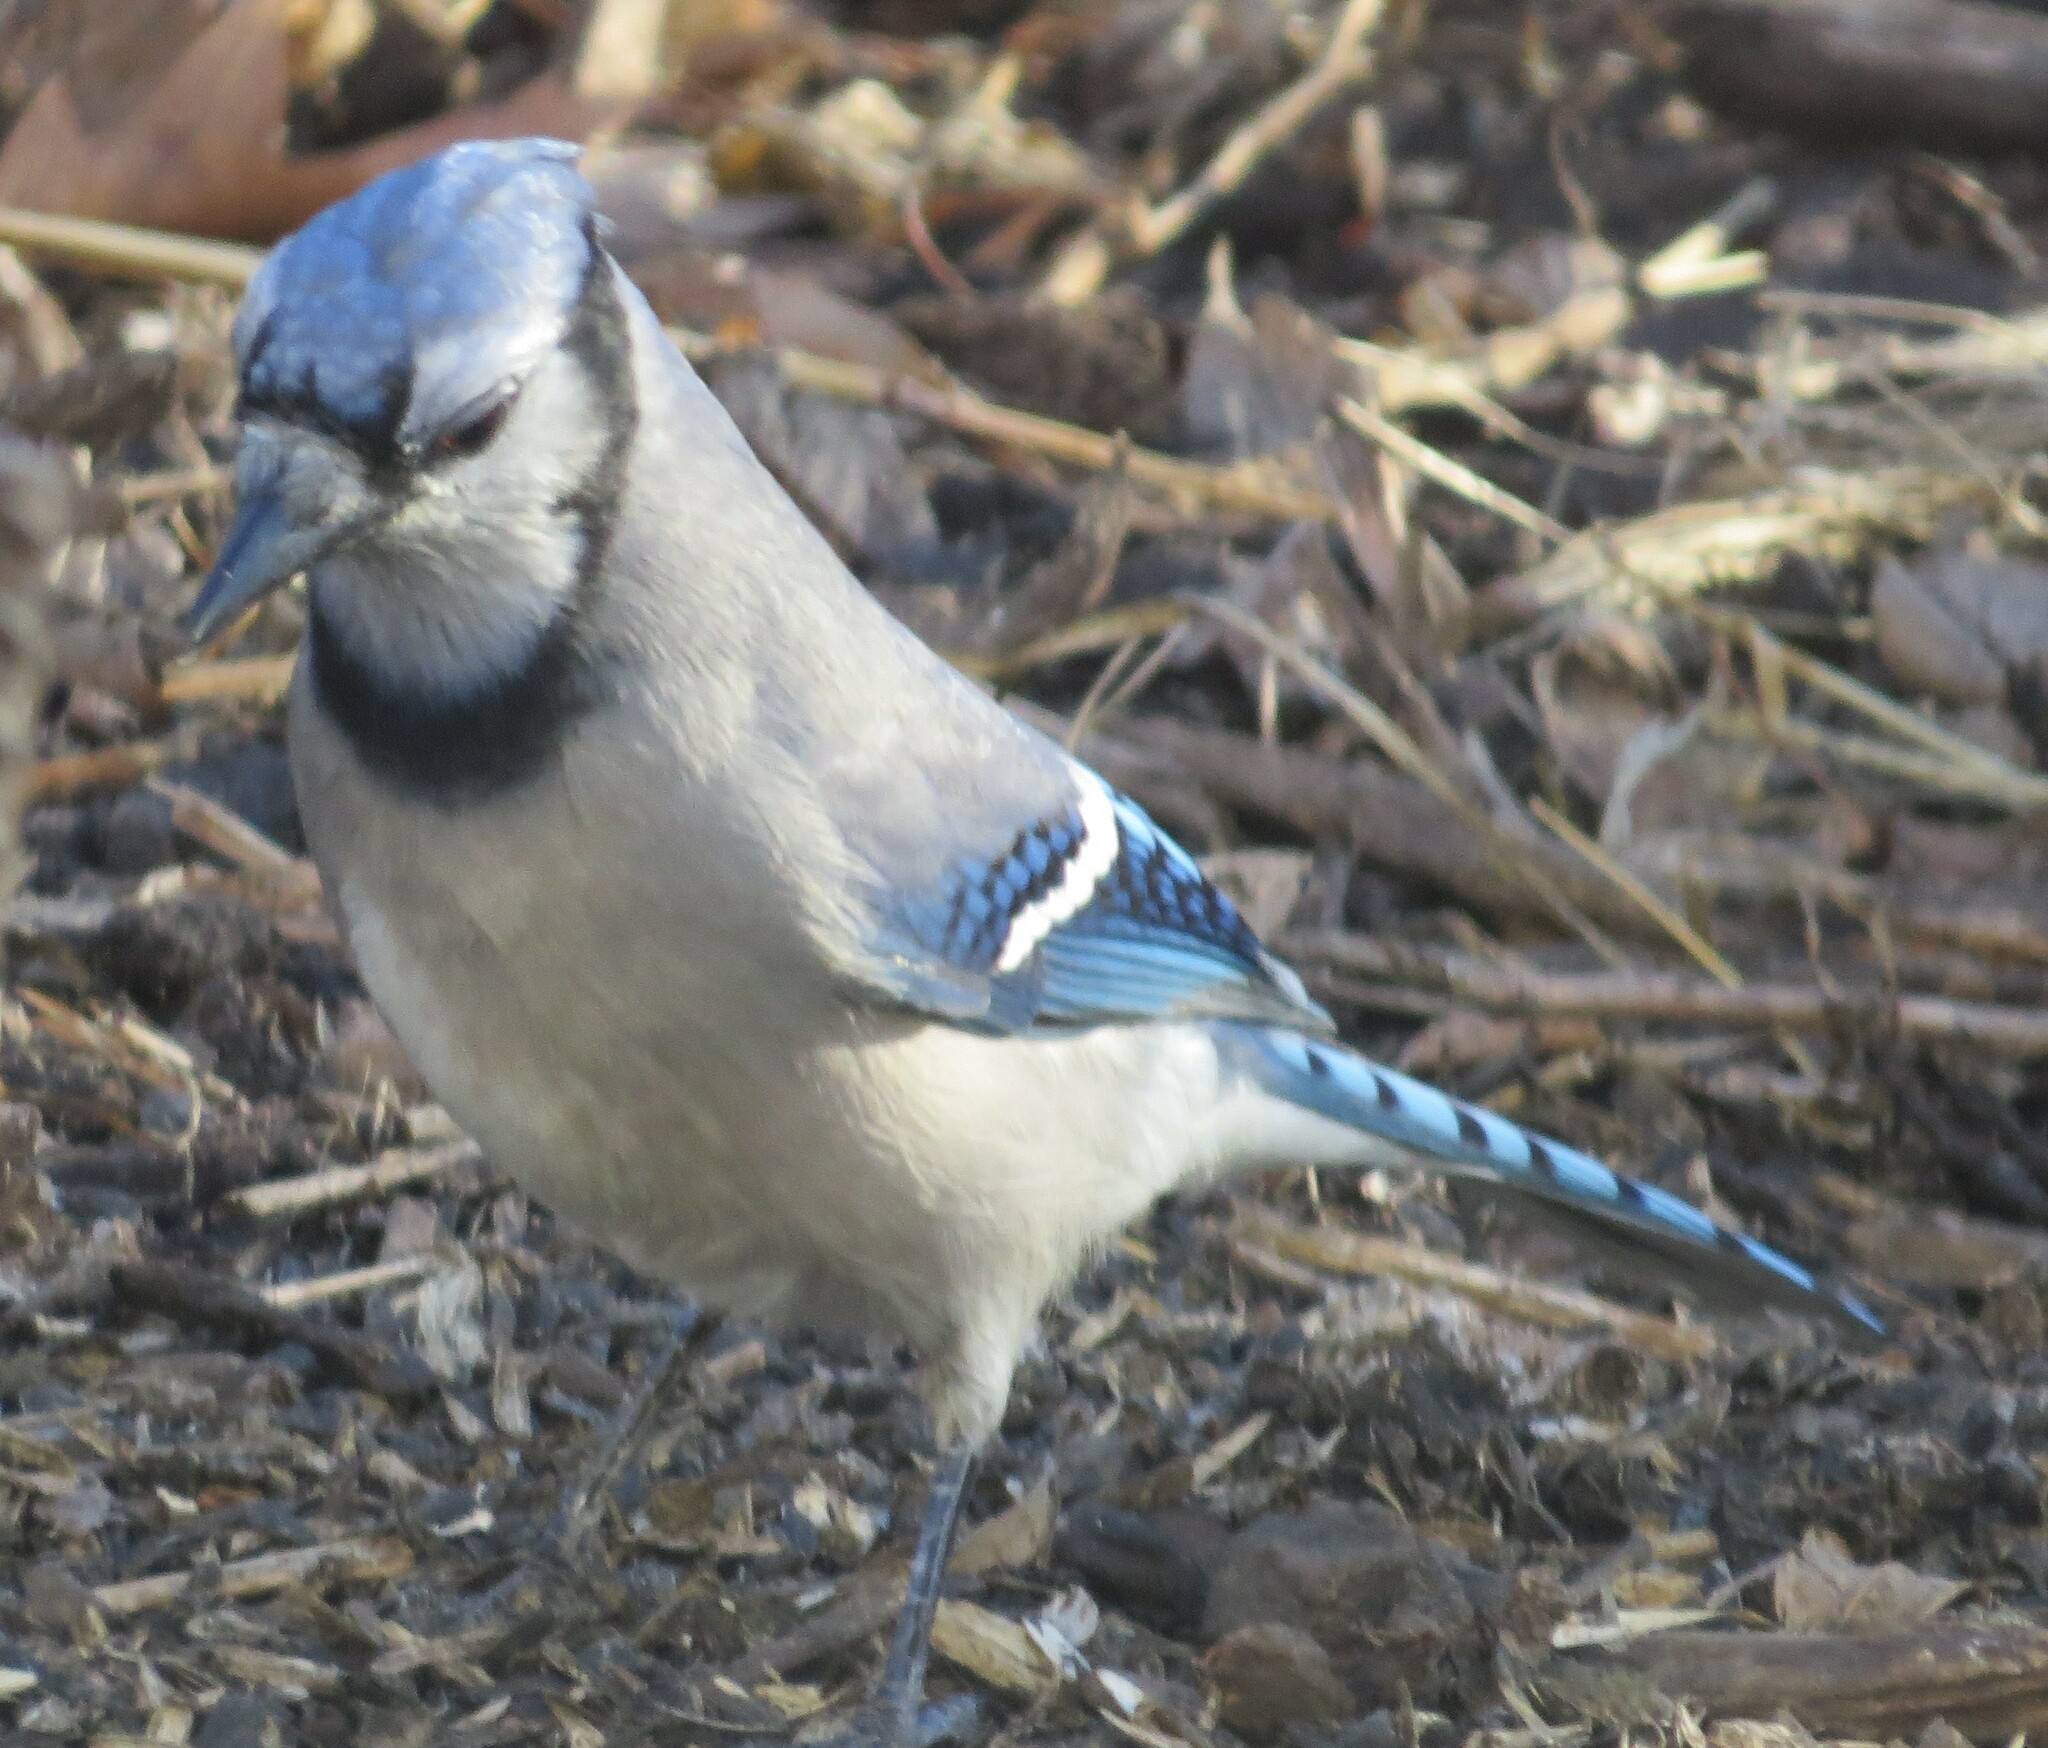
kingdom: Animalia
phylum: Chordata
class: Aves
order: Passeriformes
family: Corvidae
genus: Cyanocitta
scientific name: Cyanocitta cristata
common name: Blue jay
